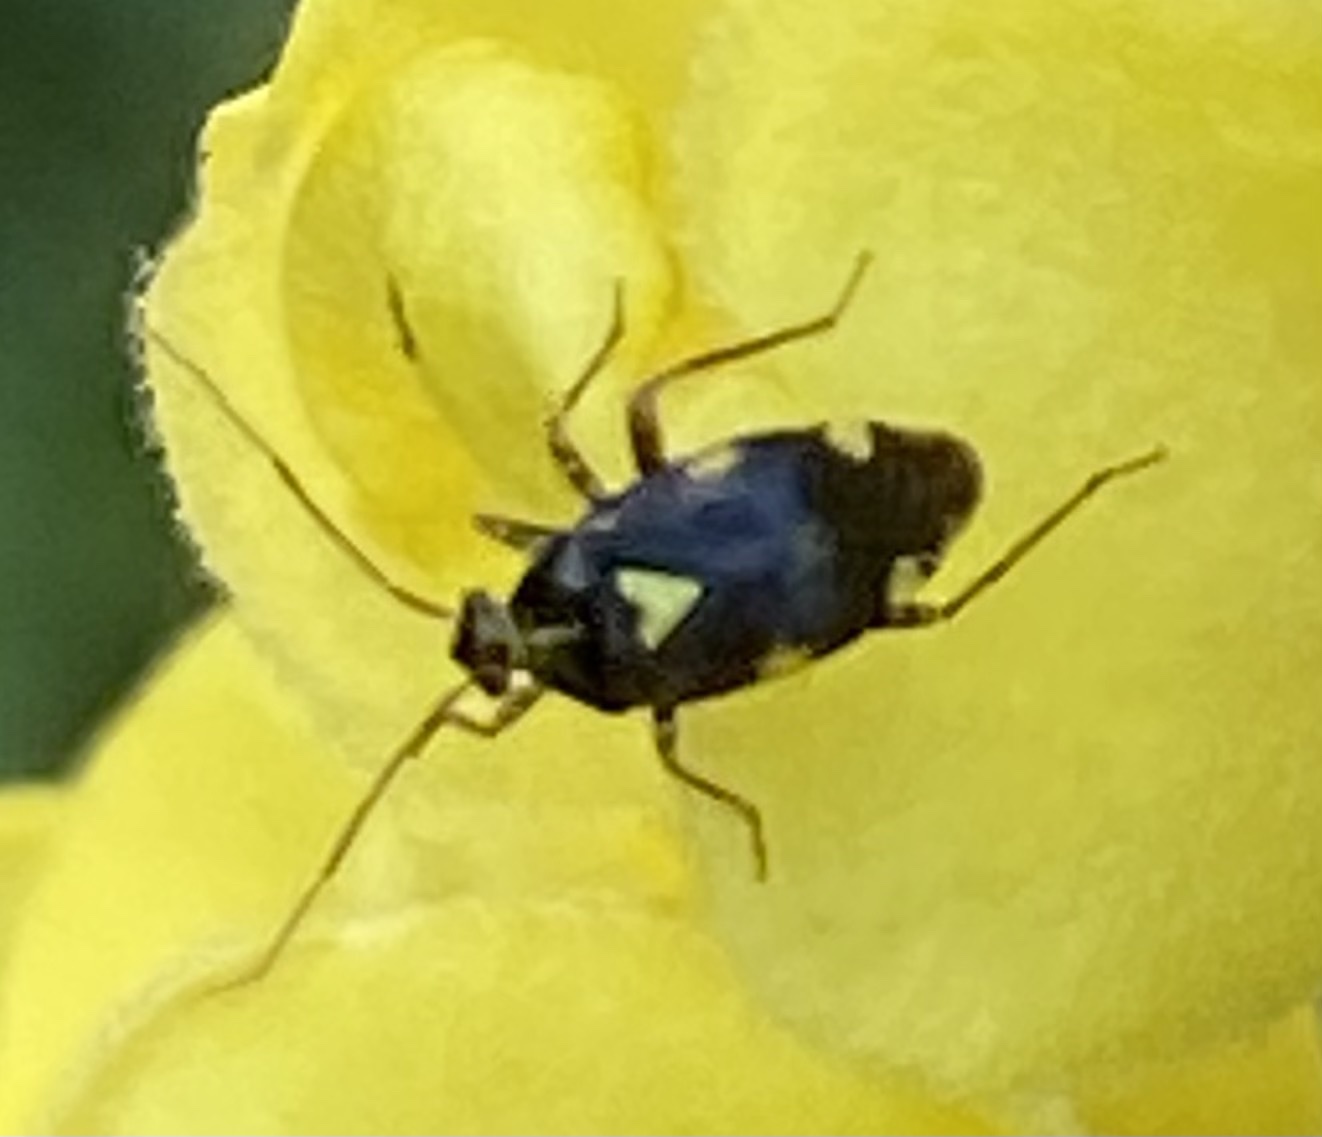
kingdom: Animalia
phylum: Arthropoda
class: Insecta
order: Hemiptera
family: Miridae
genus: Liocoris
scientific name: Liocoris tripustulatus
